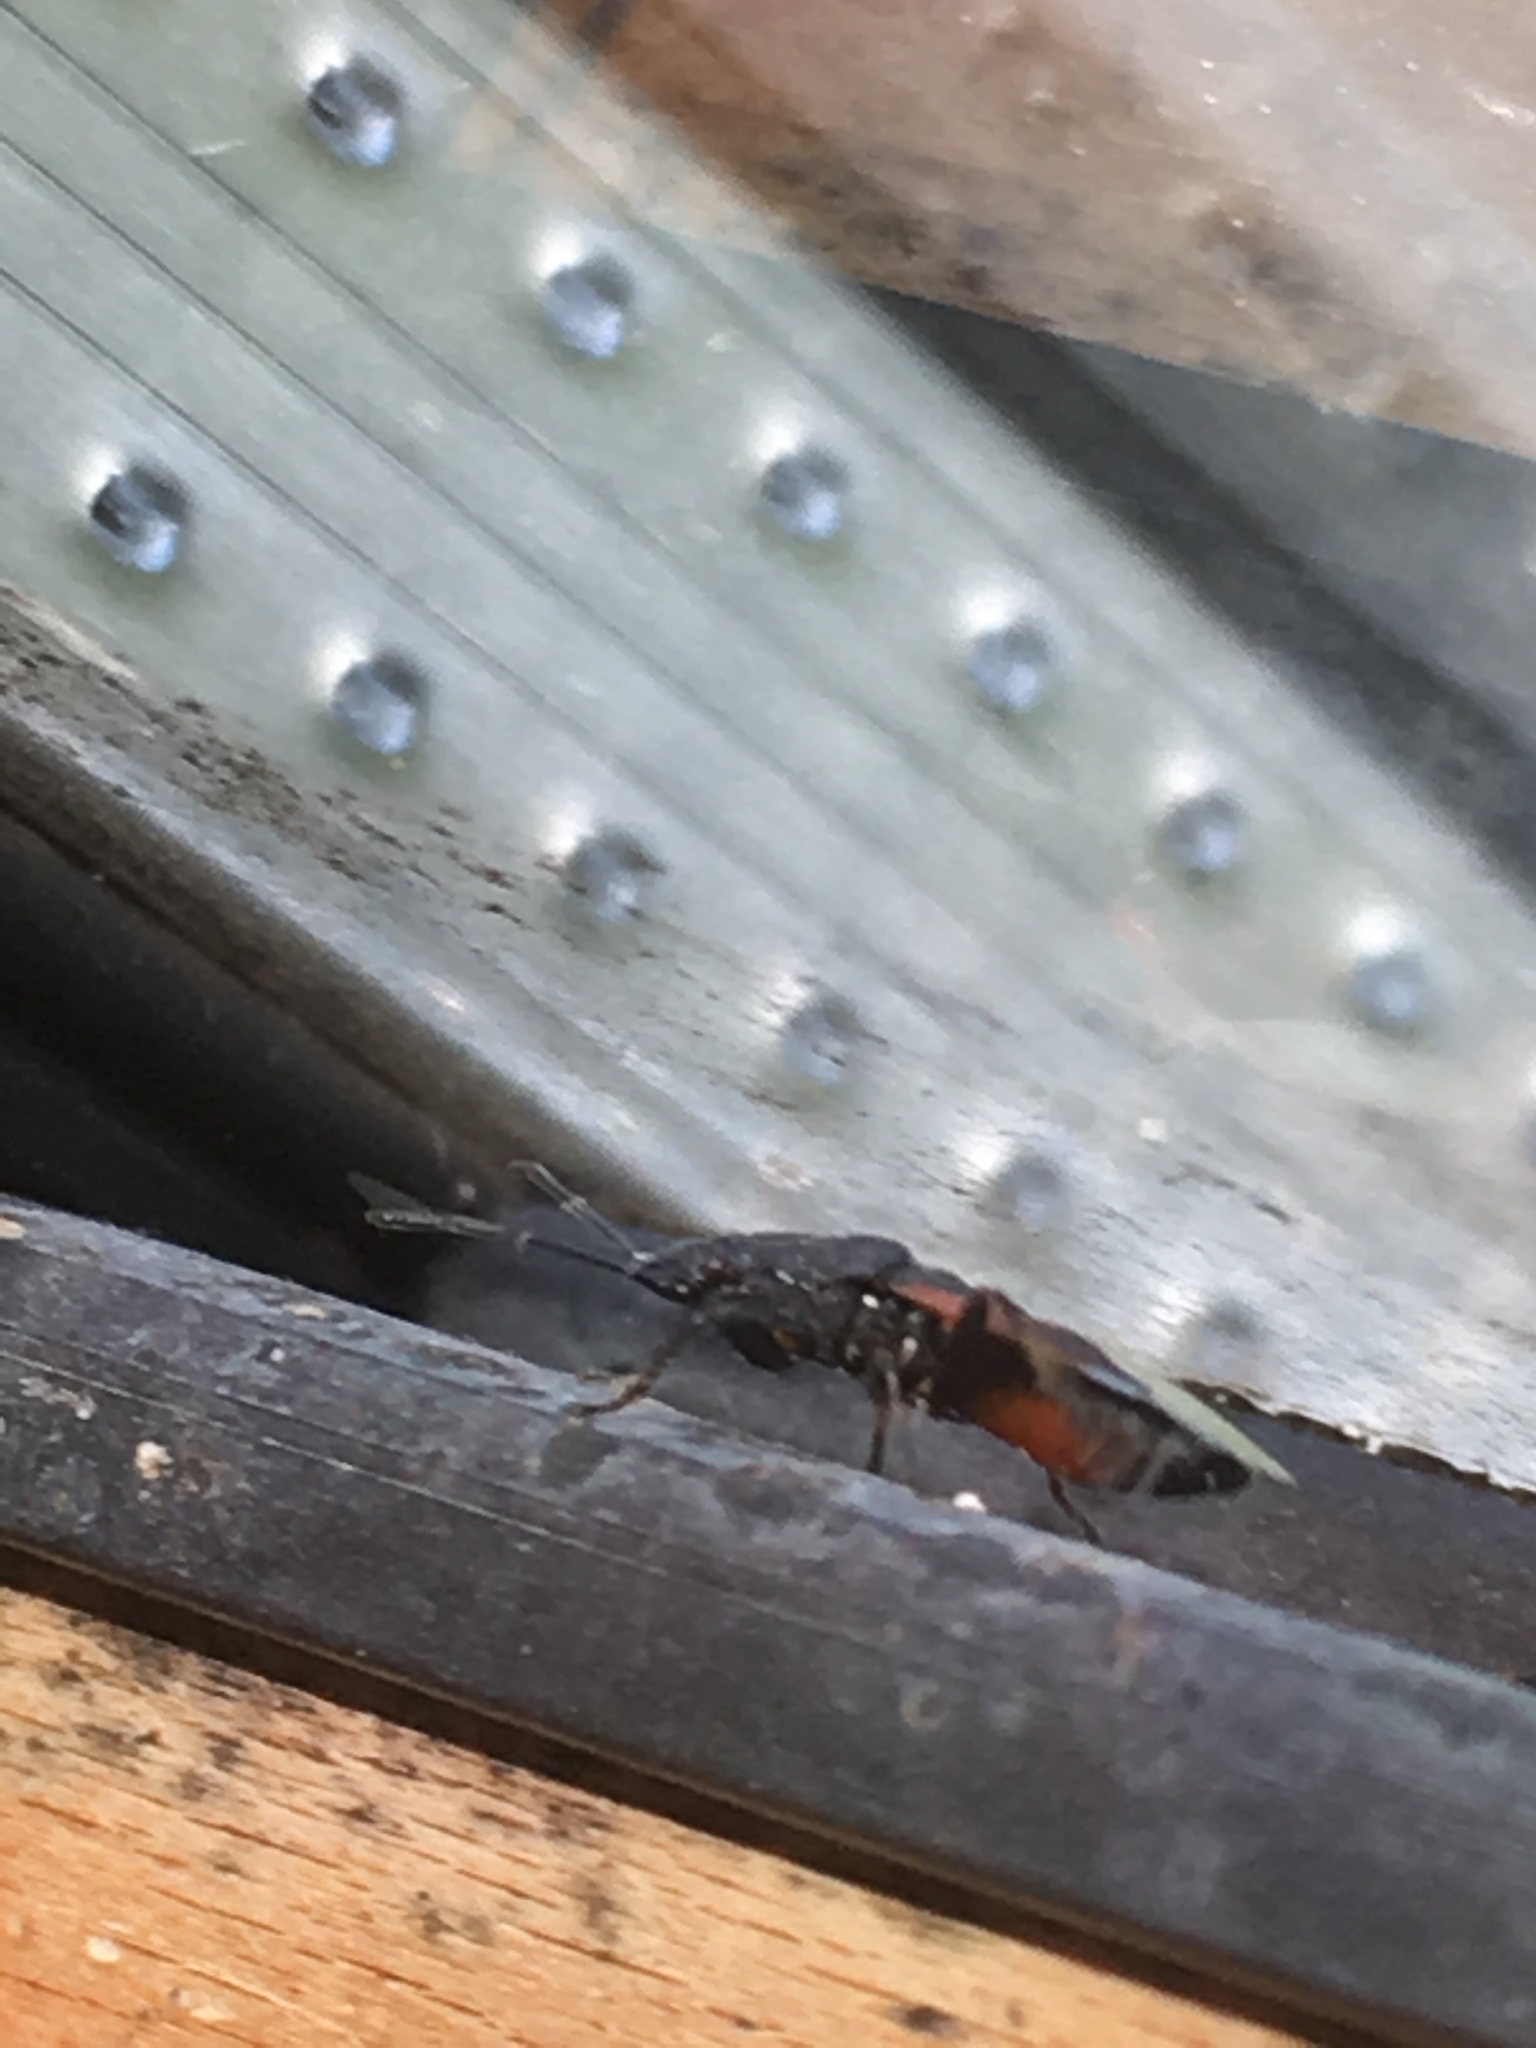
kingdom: Animalia
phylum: Arthropoda
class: Insecta
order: Hemiptera
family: Oxycarenidae
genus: Oxycarenus
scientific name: Oxycarenus lavaterae
